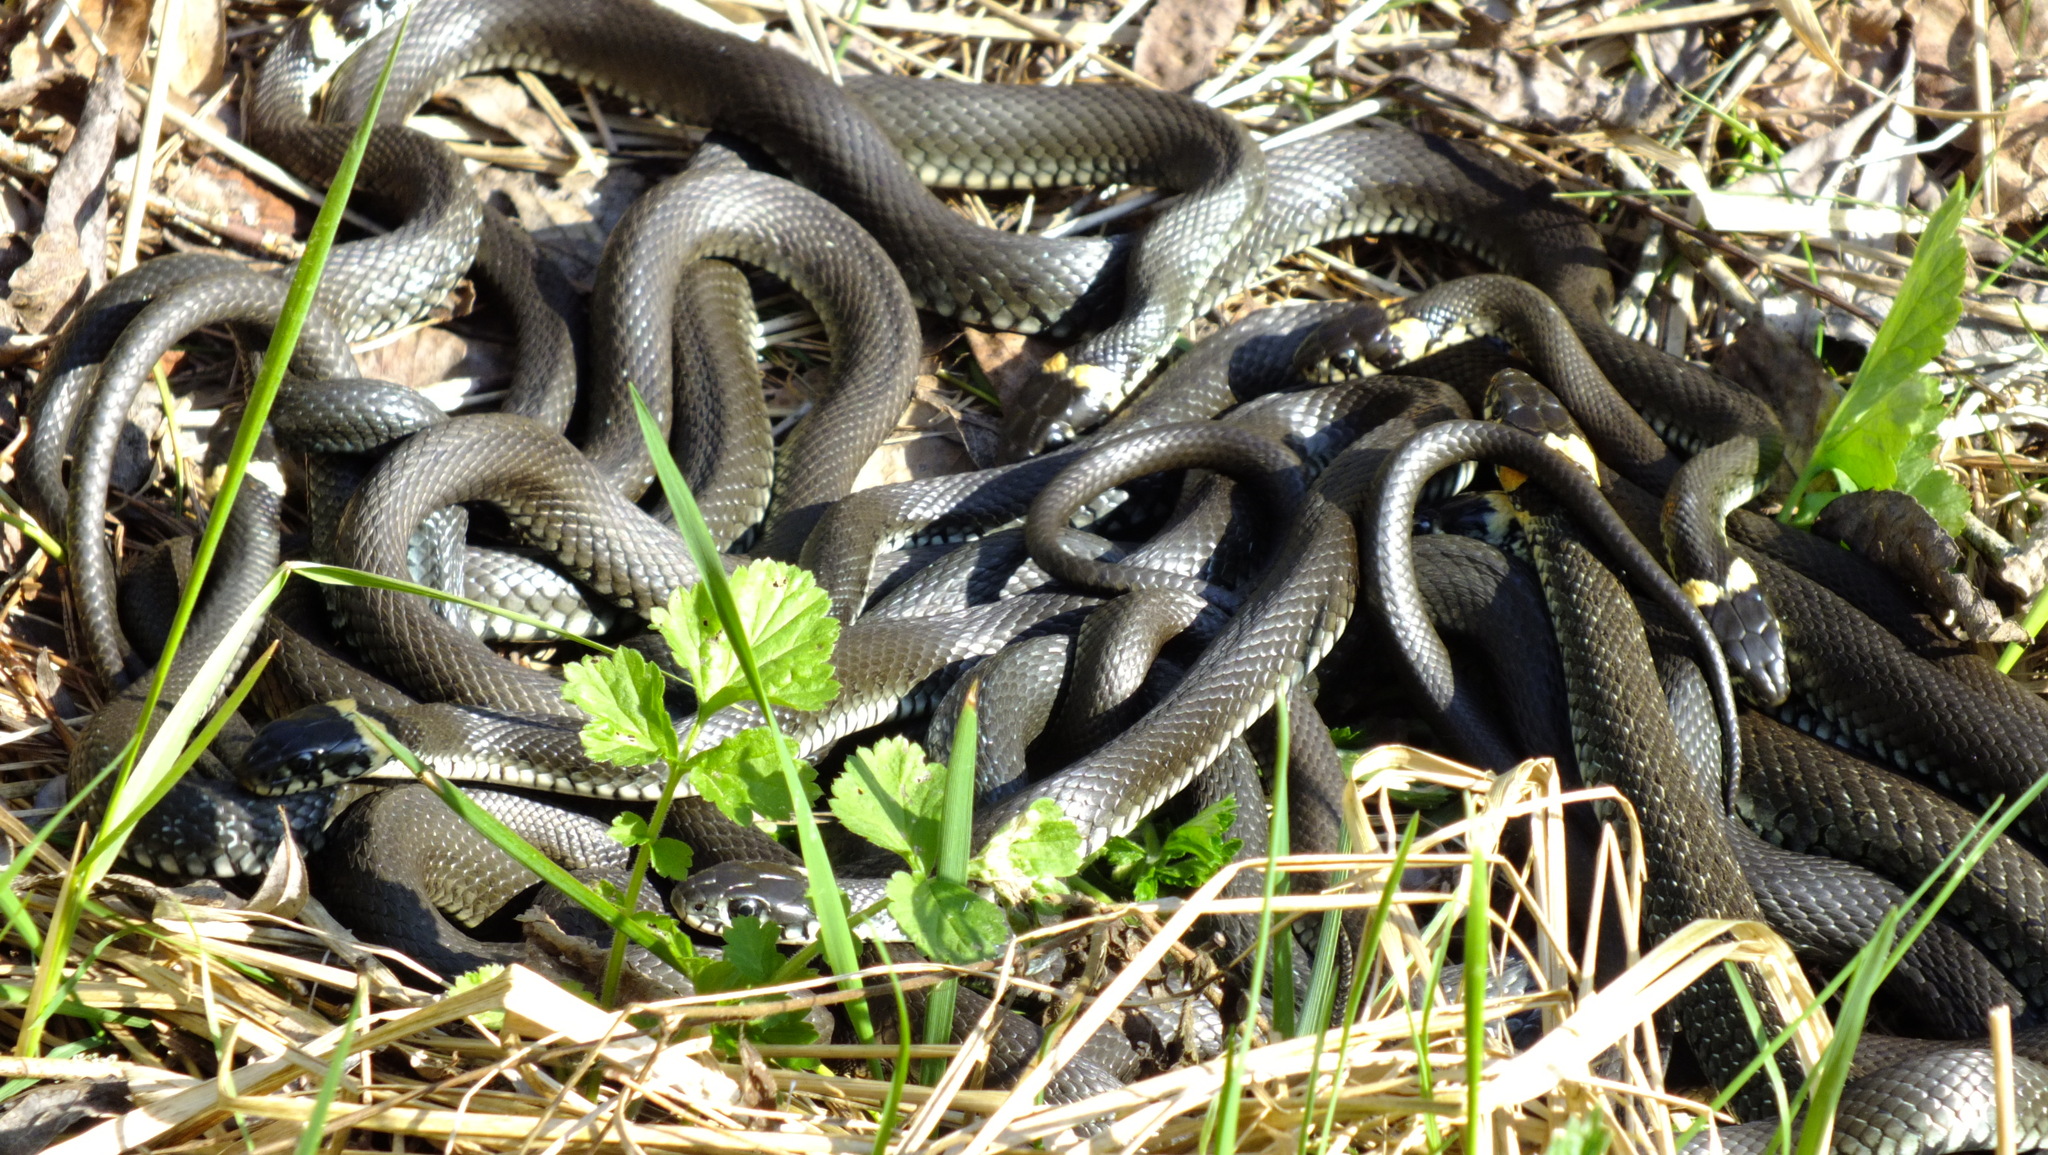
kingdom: Animalia
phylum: Chordata
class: Squamata
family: Colubridae
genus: Natrix
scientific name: Natrix natrix
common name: Grass snake
